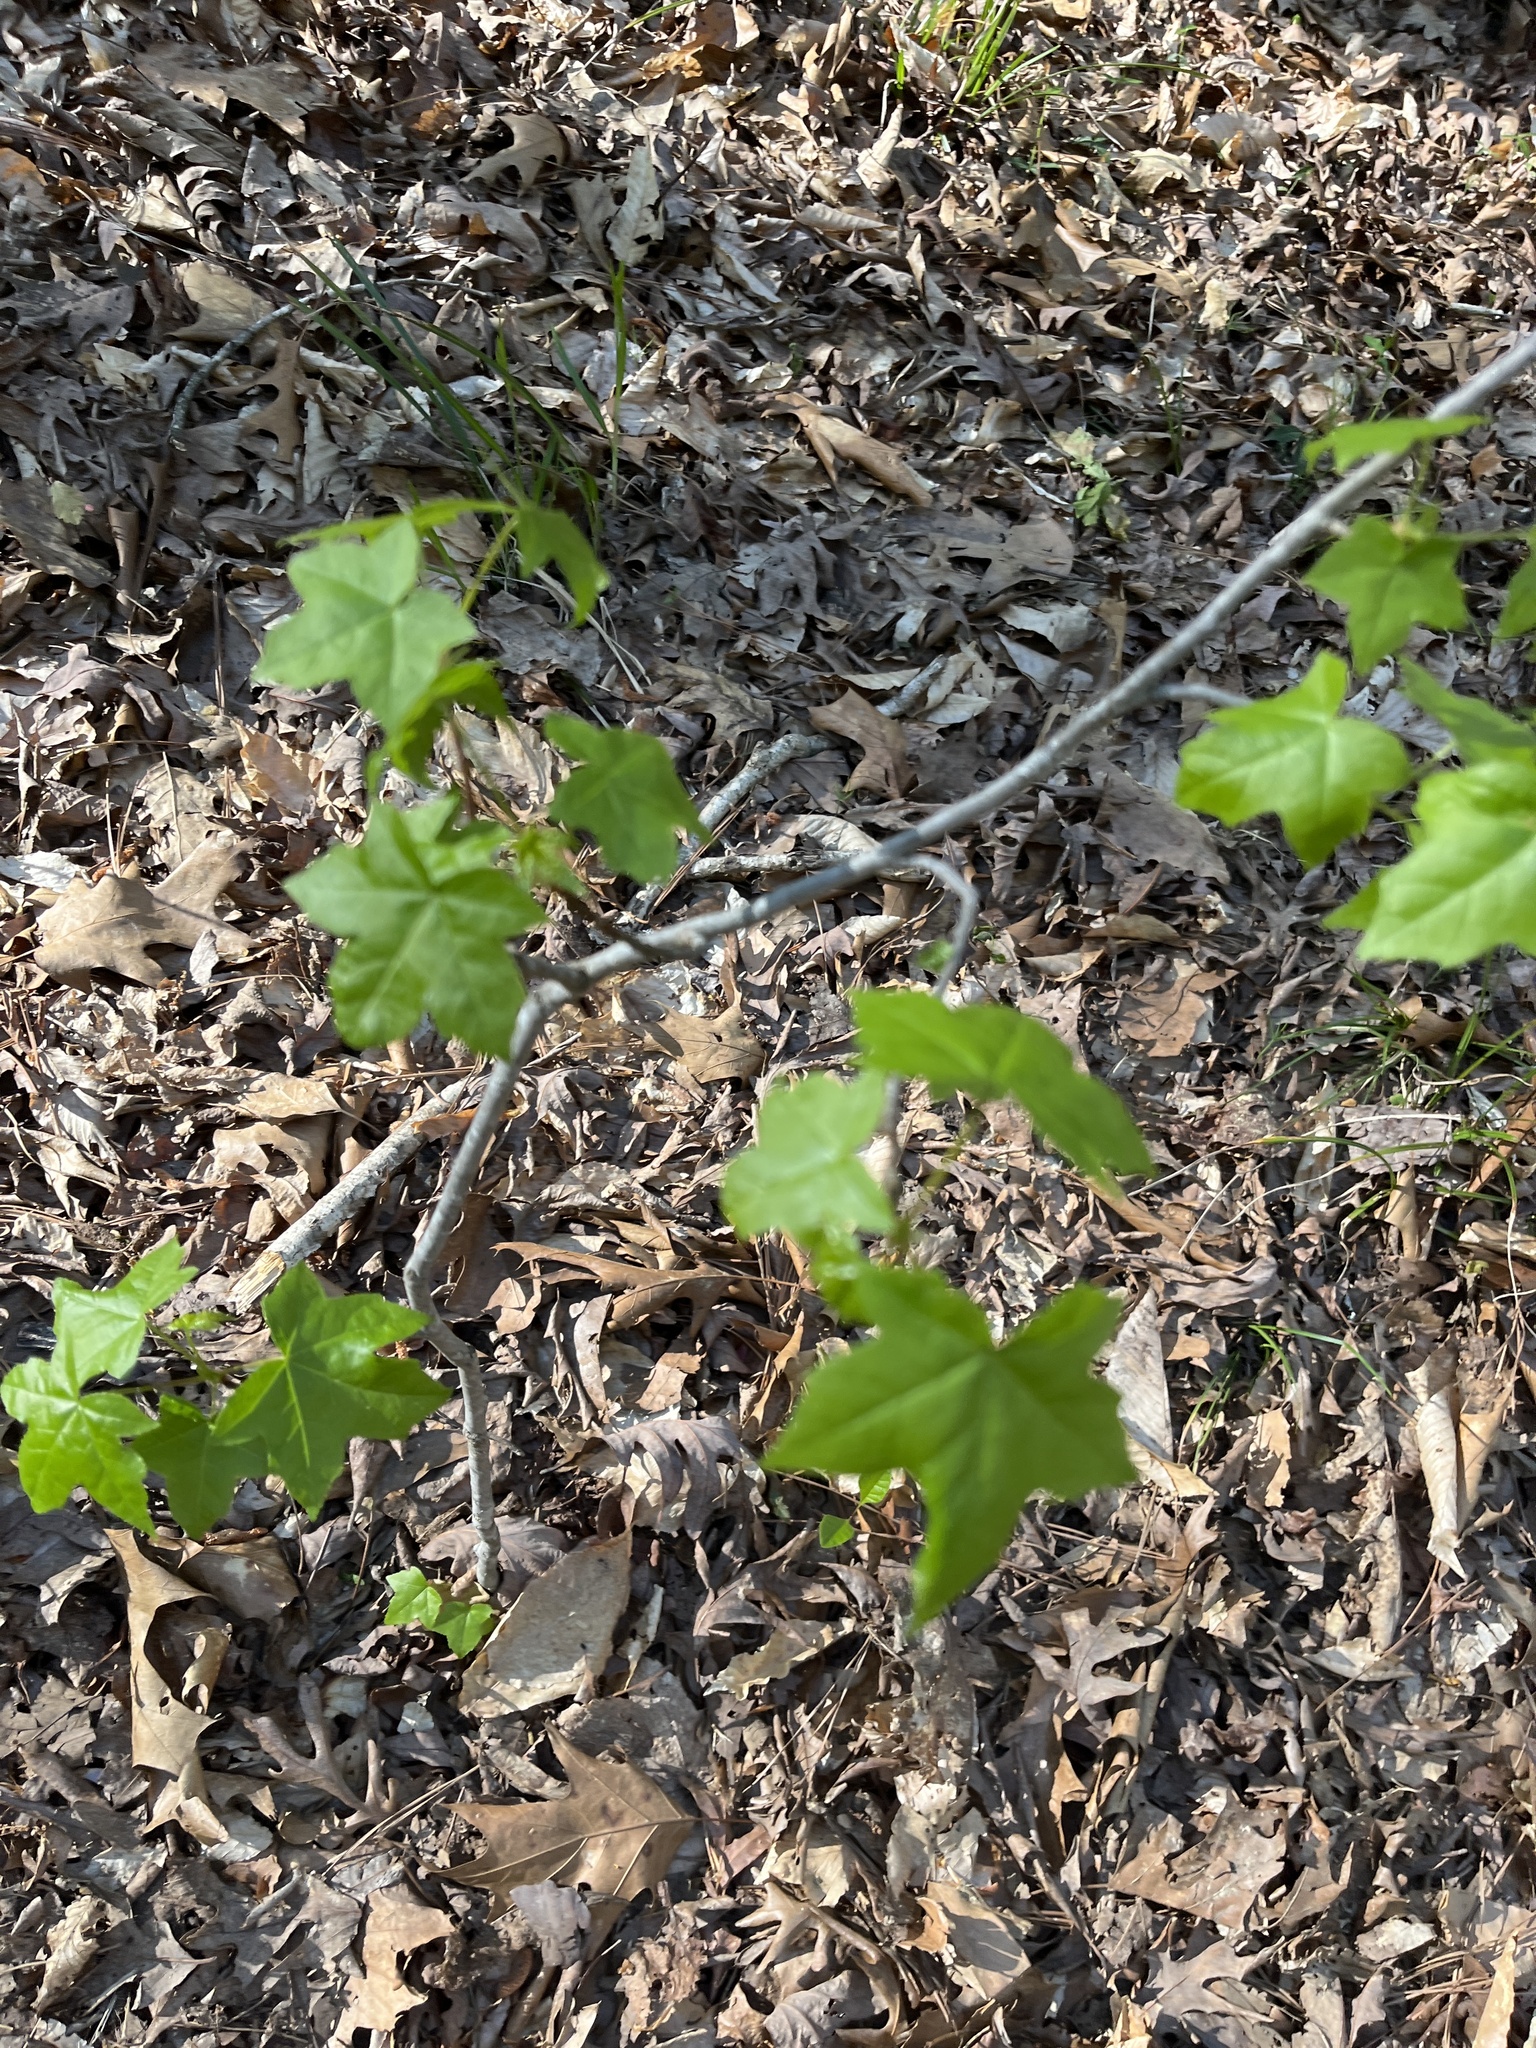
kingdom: Plantae
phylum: Tracheophyta
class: Magnoliopsida
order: Saxifragales
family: Altingiaceae
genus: Liquidambar
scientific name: Liquidambar styraciflua
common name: Sweet gum
